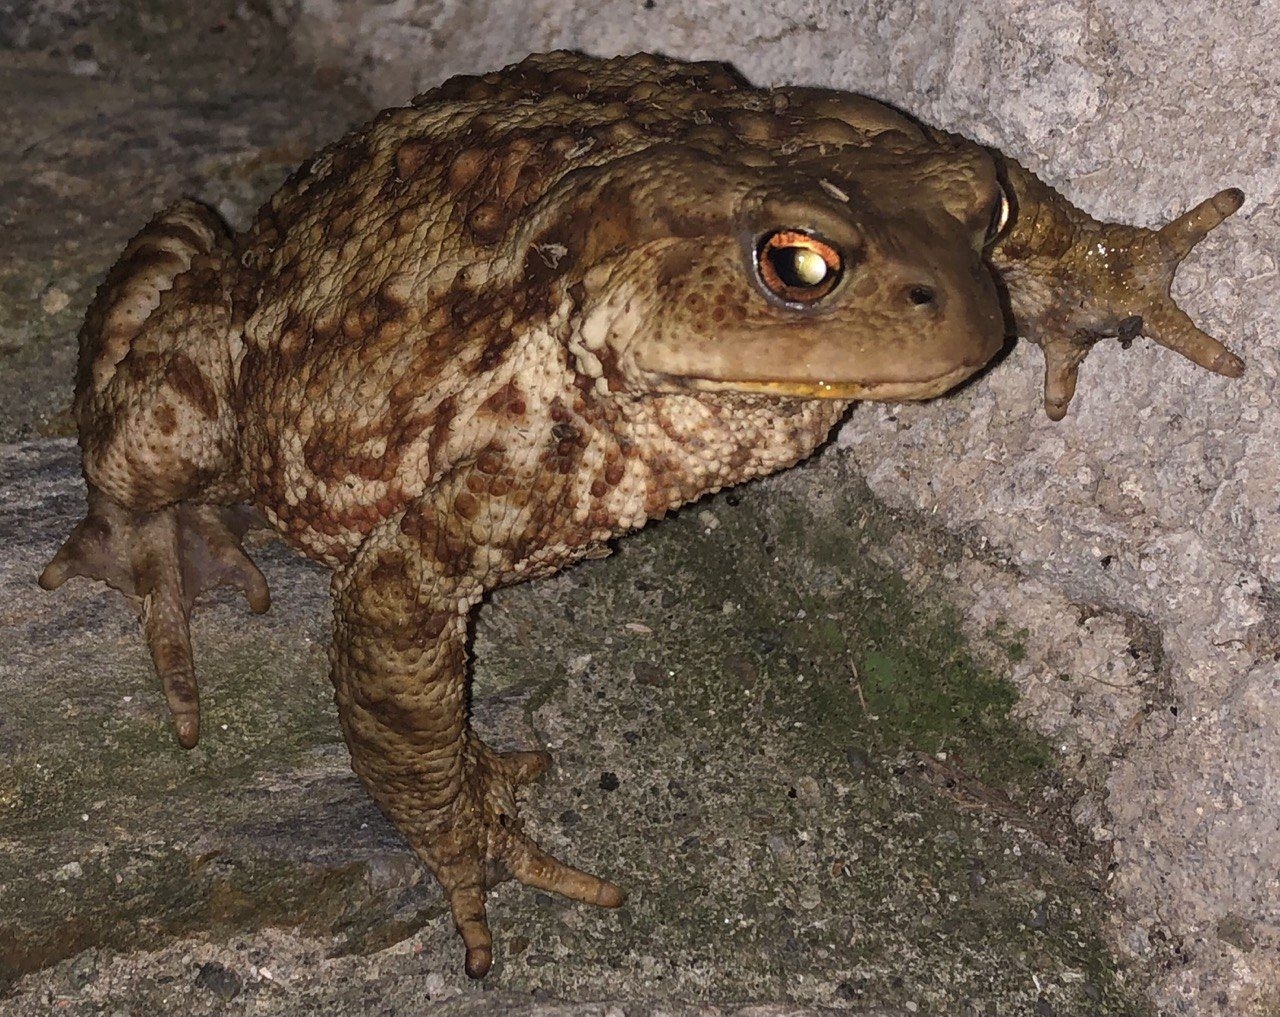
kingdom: Animalia
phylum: Chordata
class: Amphibia
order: Anura
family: Bufonidae
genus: Bufo
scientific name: Bufo bufo
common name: Common toad
